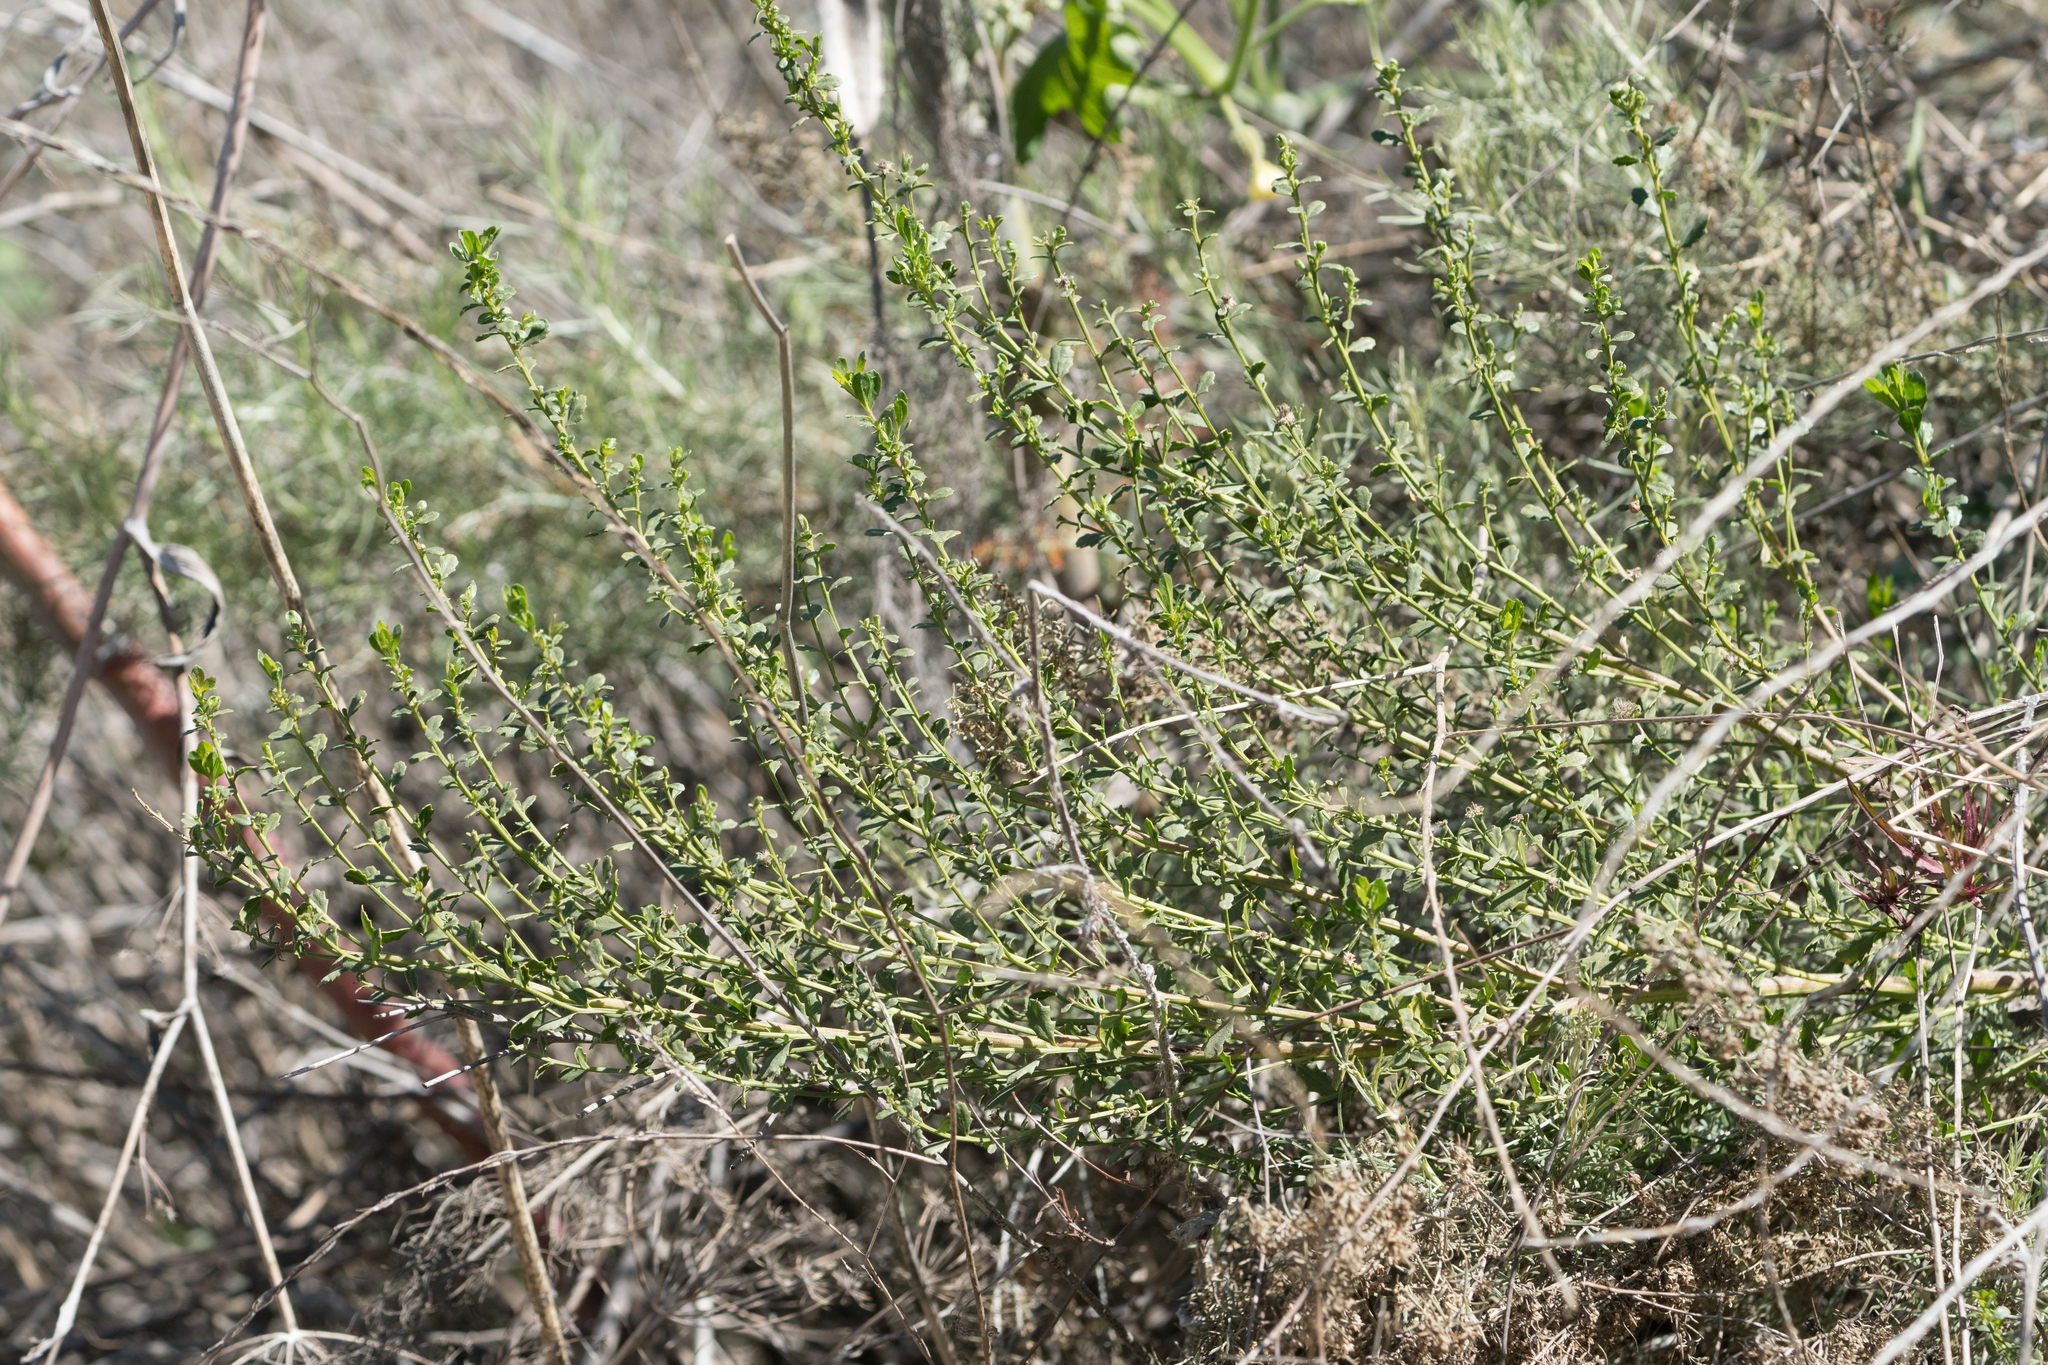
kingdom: Plantae
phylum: Tracheophyta
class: Magnoliopsida
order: Asterales
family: Asteraceae
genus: Baccharis
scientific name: Baccharis pilularis
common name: Coyotebrush
